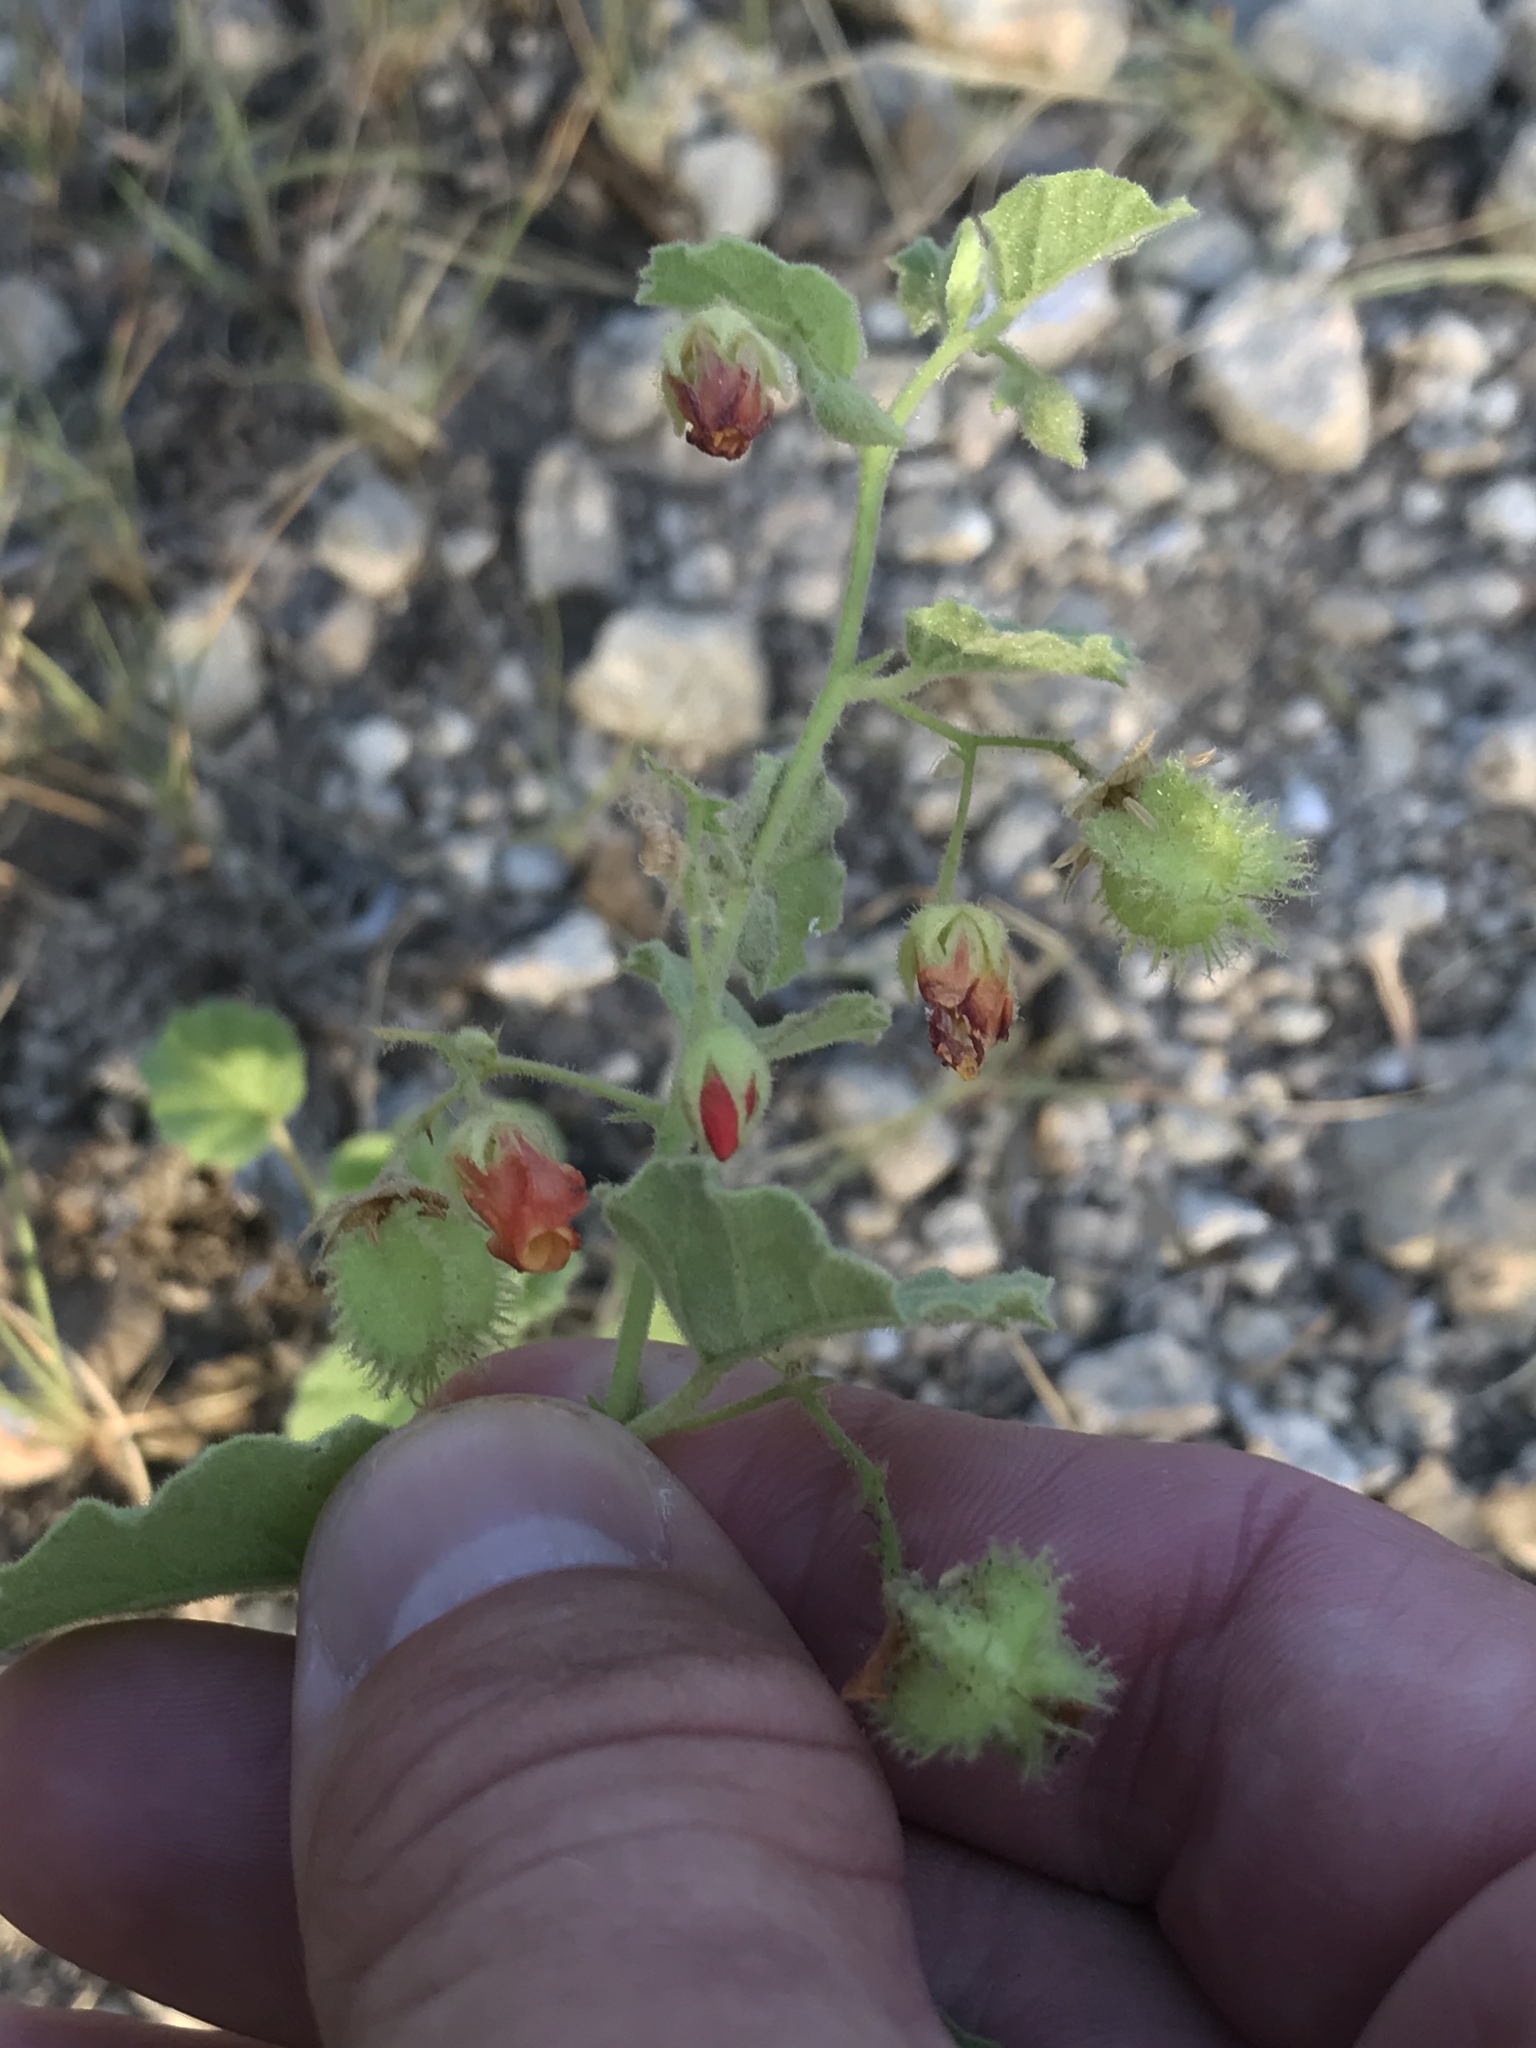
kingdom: Plantae
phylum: Tracheophyta
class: Magnoliopsida
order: Malvales
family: Malvaceae
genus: Hermannia
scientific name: Hermannia texana
